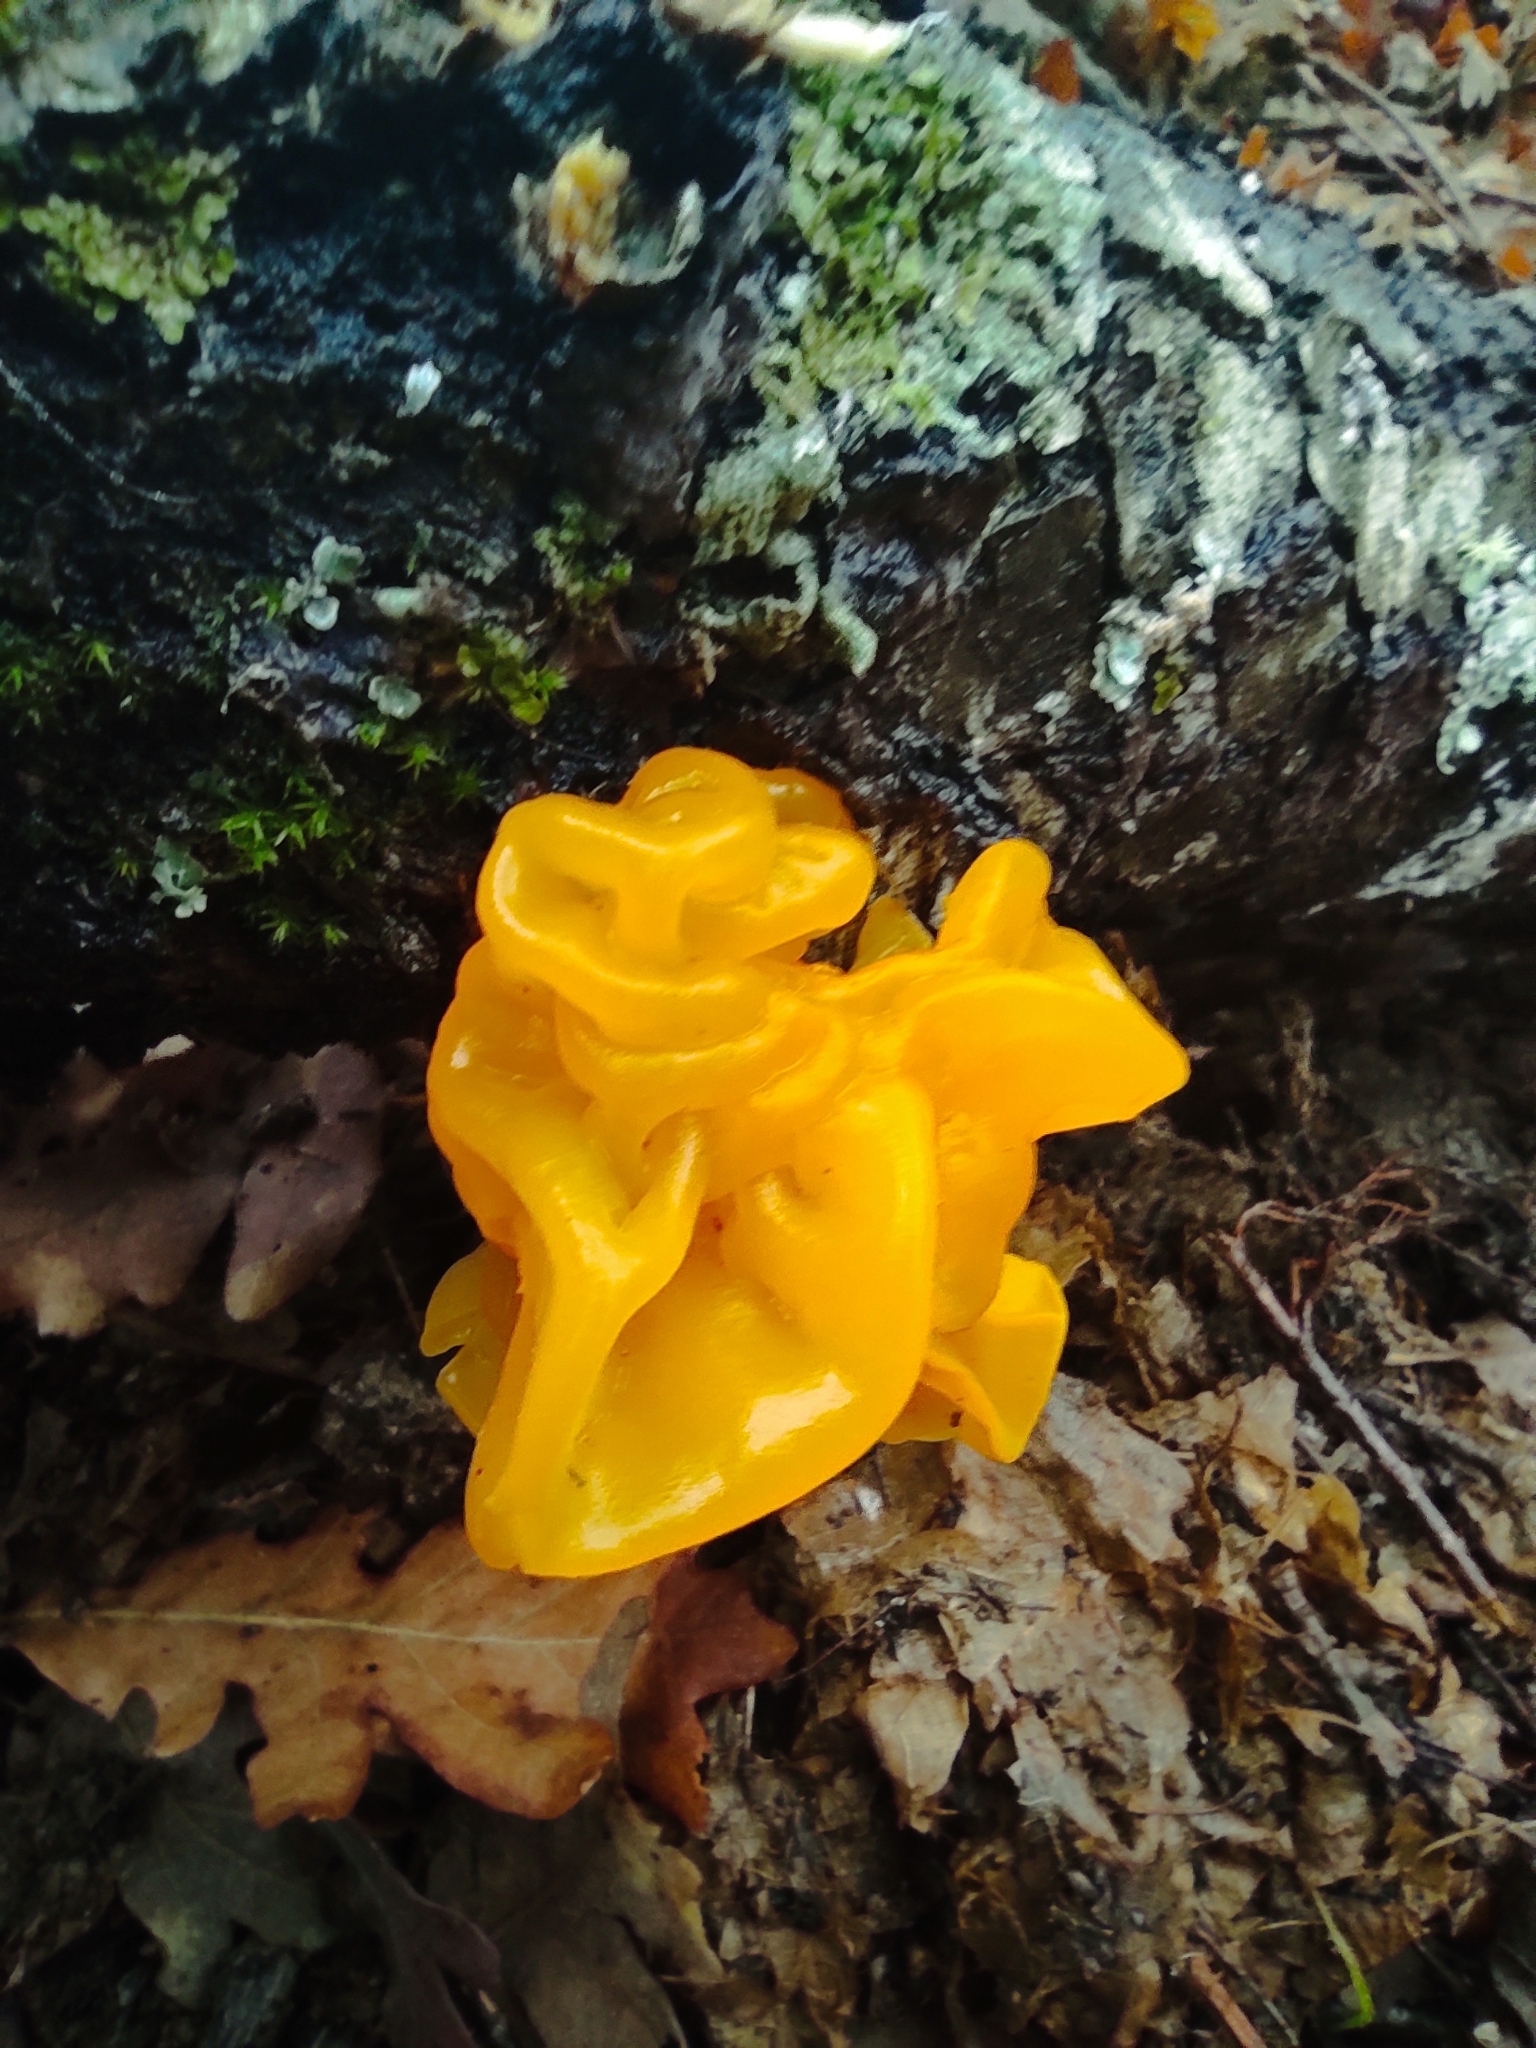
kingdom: Fungi
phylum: Basidiomycota
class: Tremellomycetes
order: Tremellales
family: Naemateliaceae
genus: Naematelia
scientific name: Naematelia aurantia
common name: Golden ear
